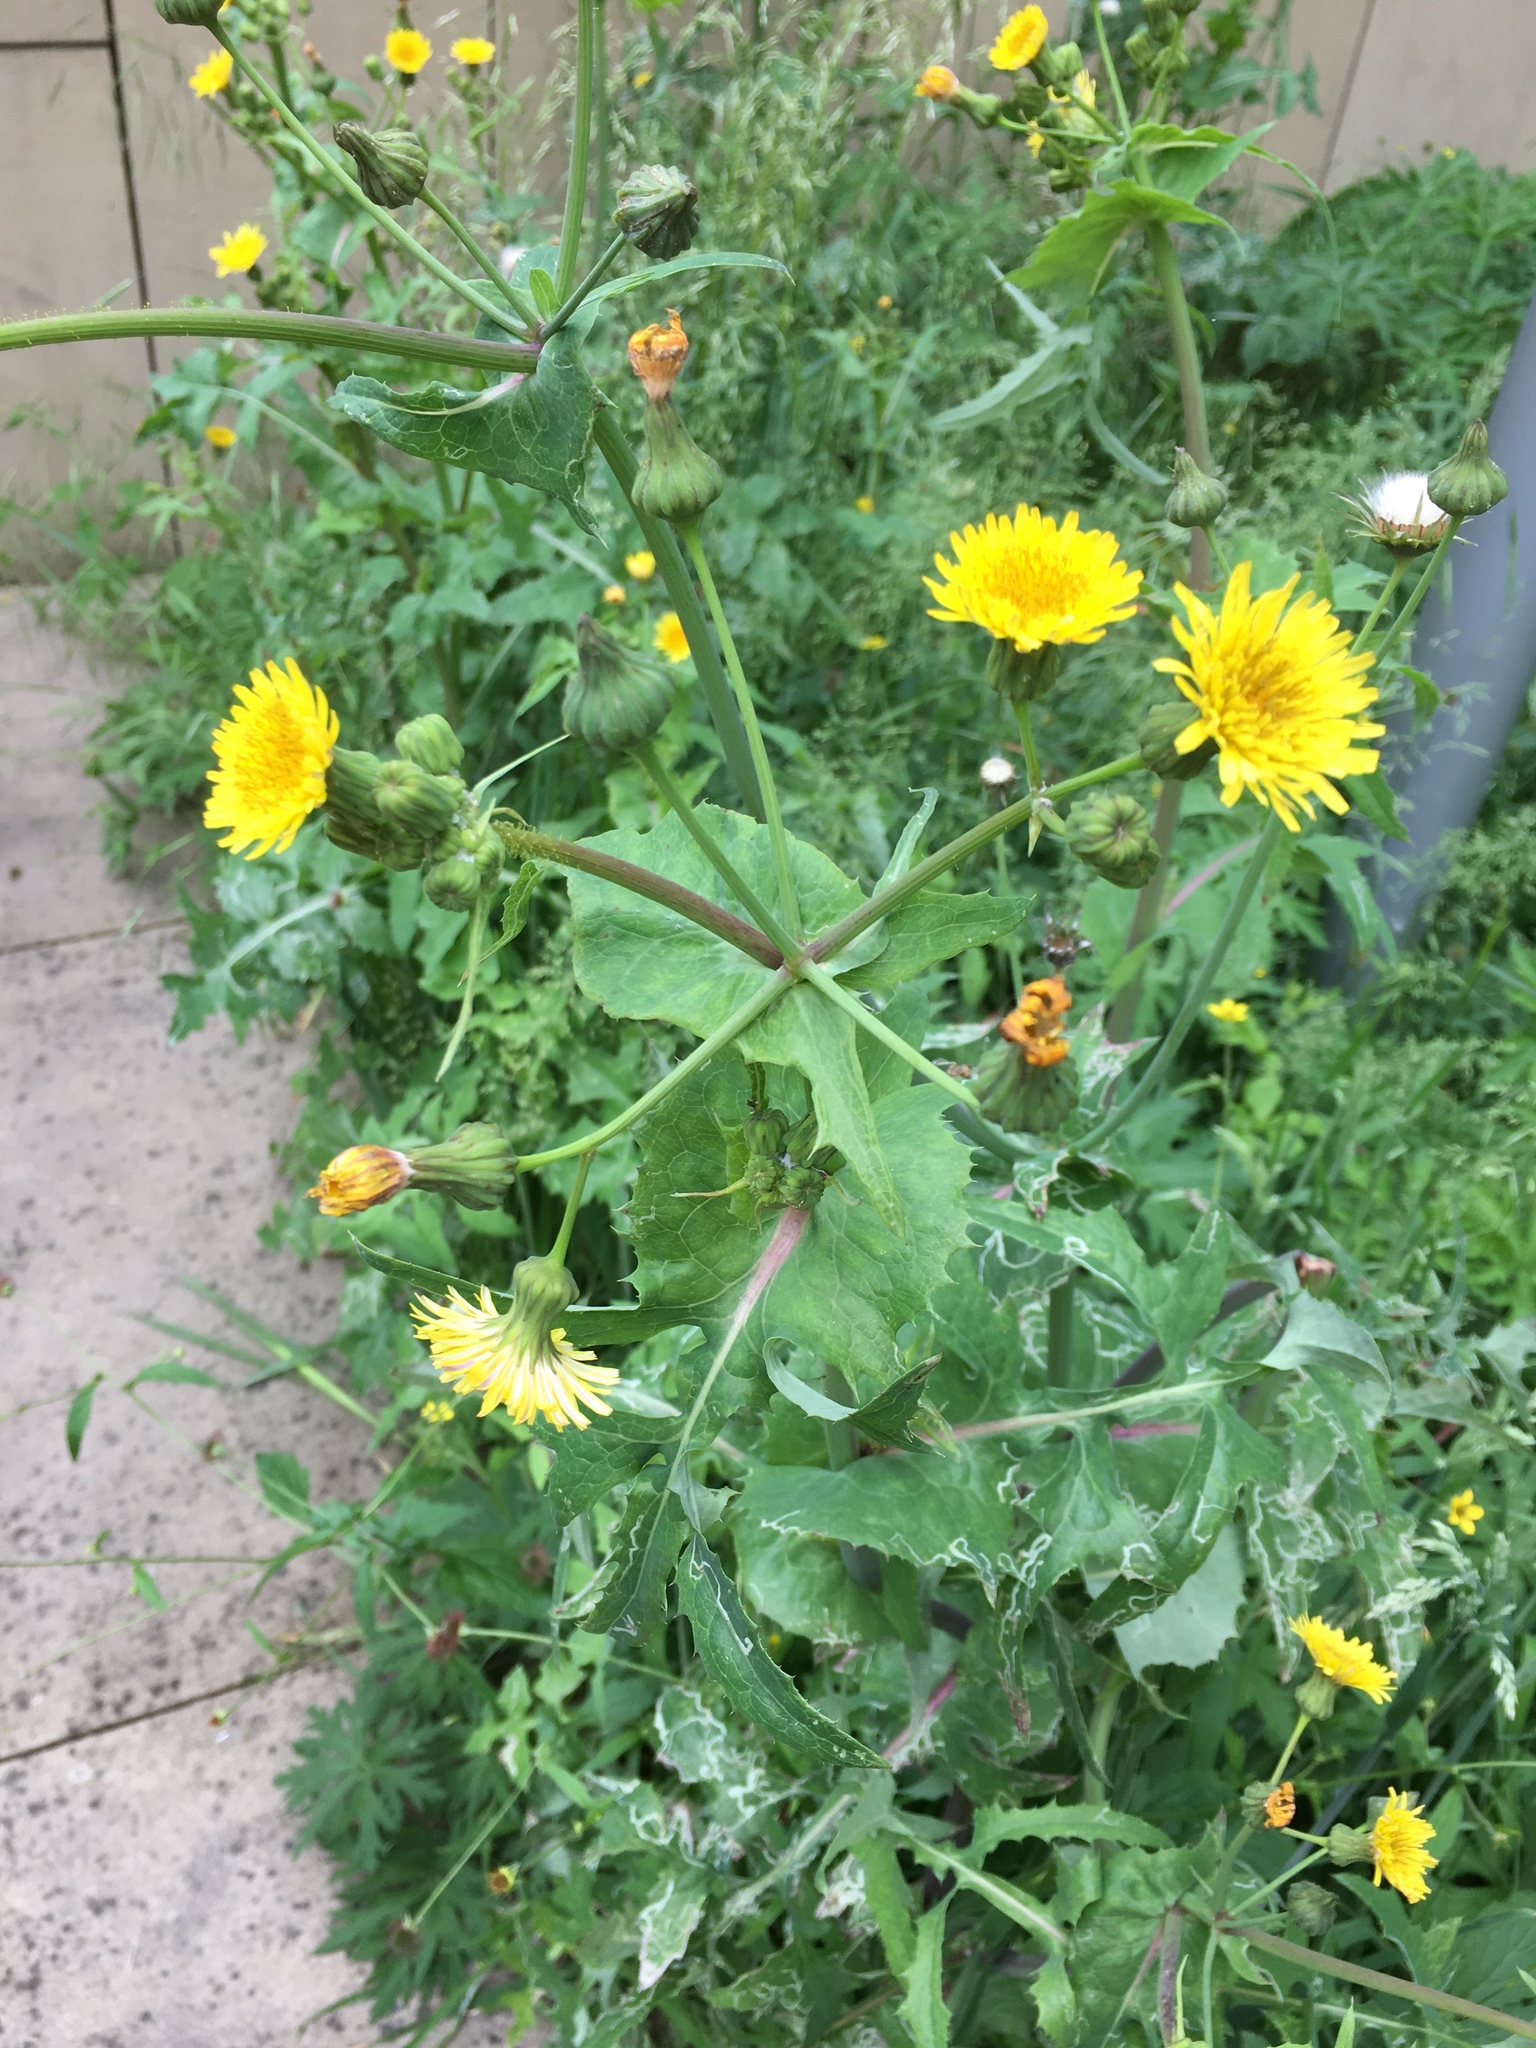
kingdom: Plantae
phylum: Tracheophyta
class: Magnoliopsida
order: Asterales
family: Asteraceae
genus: Sonchus
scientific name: Sonchus oleraceus
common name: Common sowthistle
